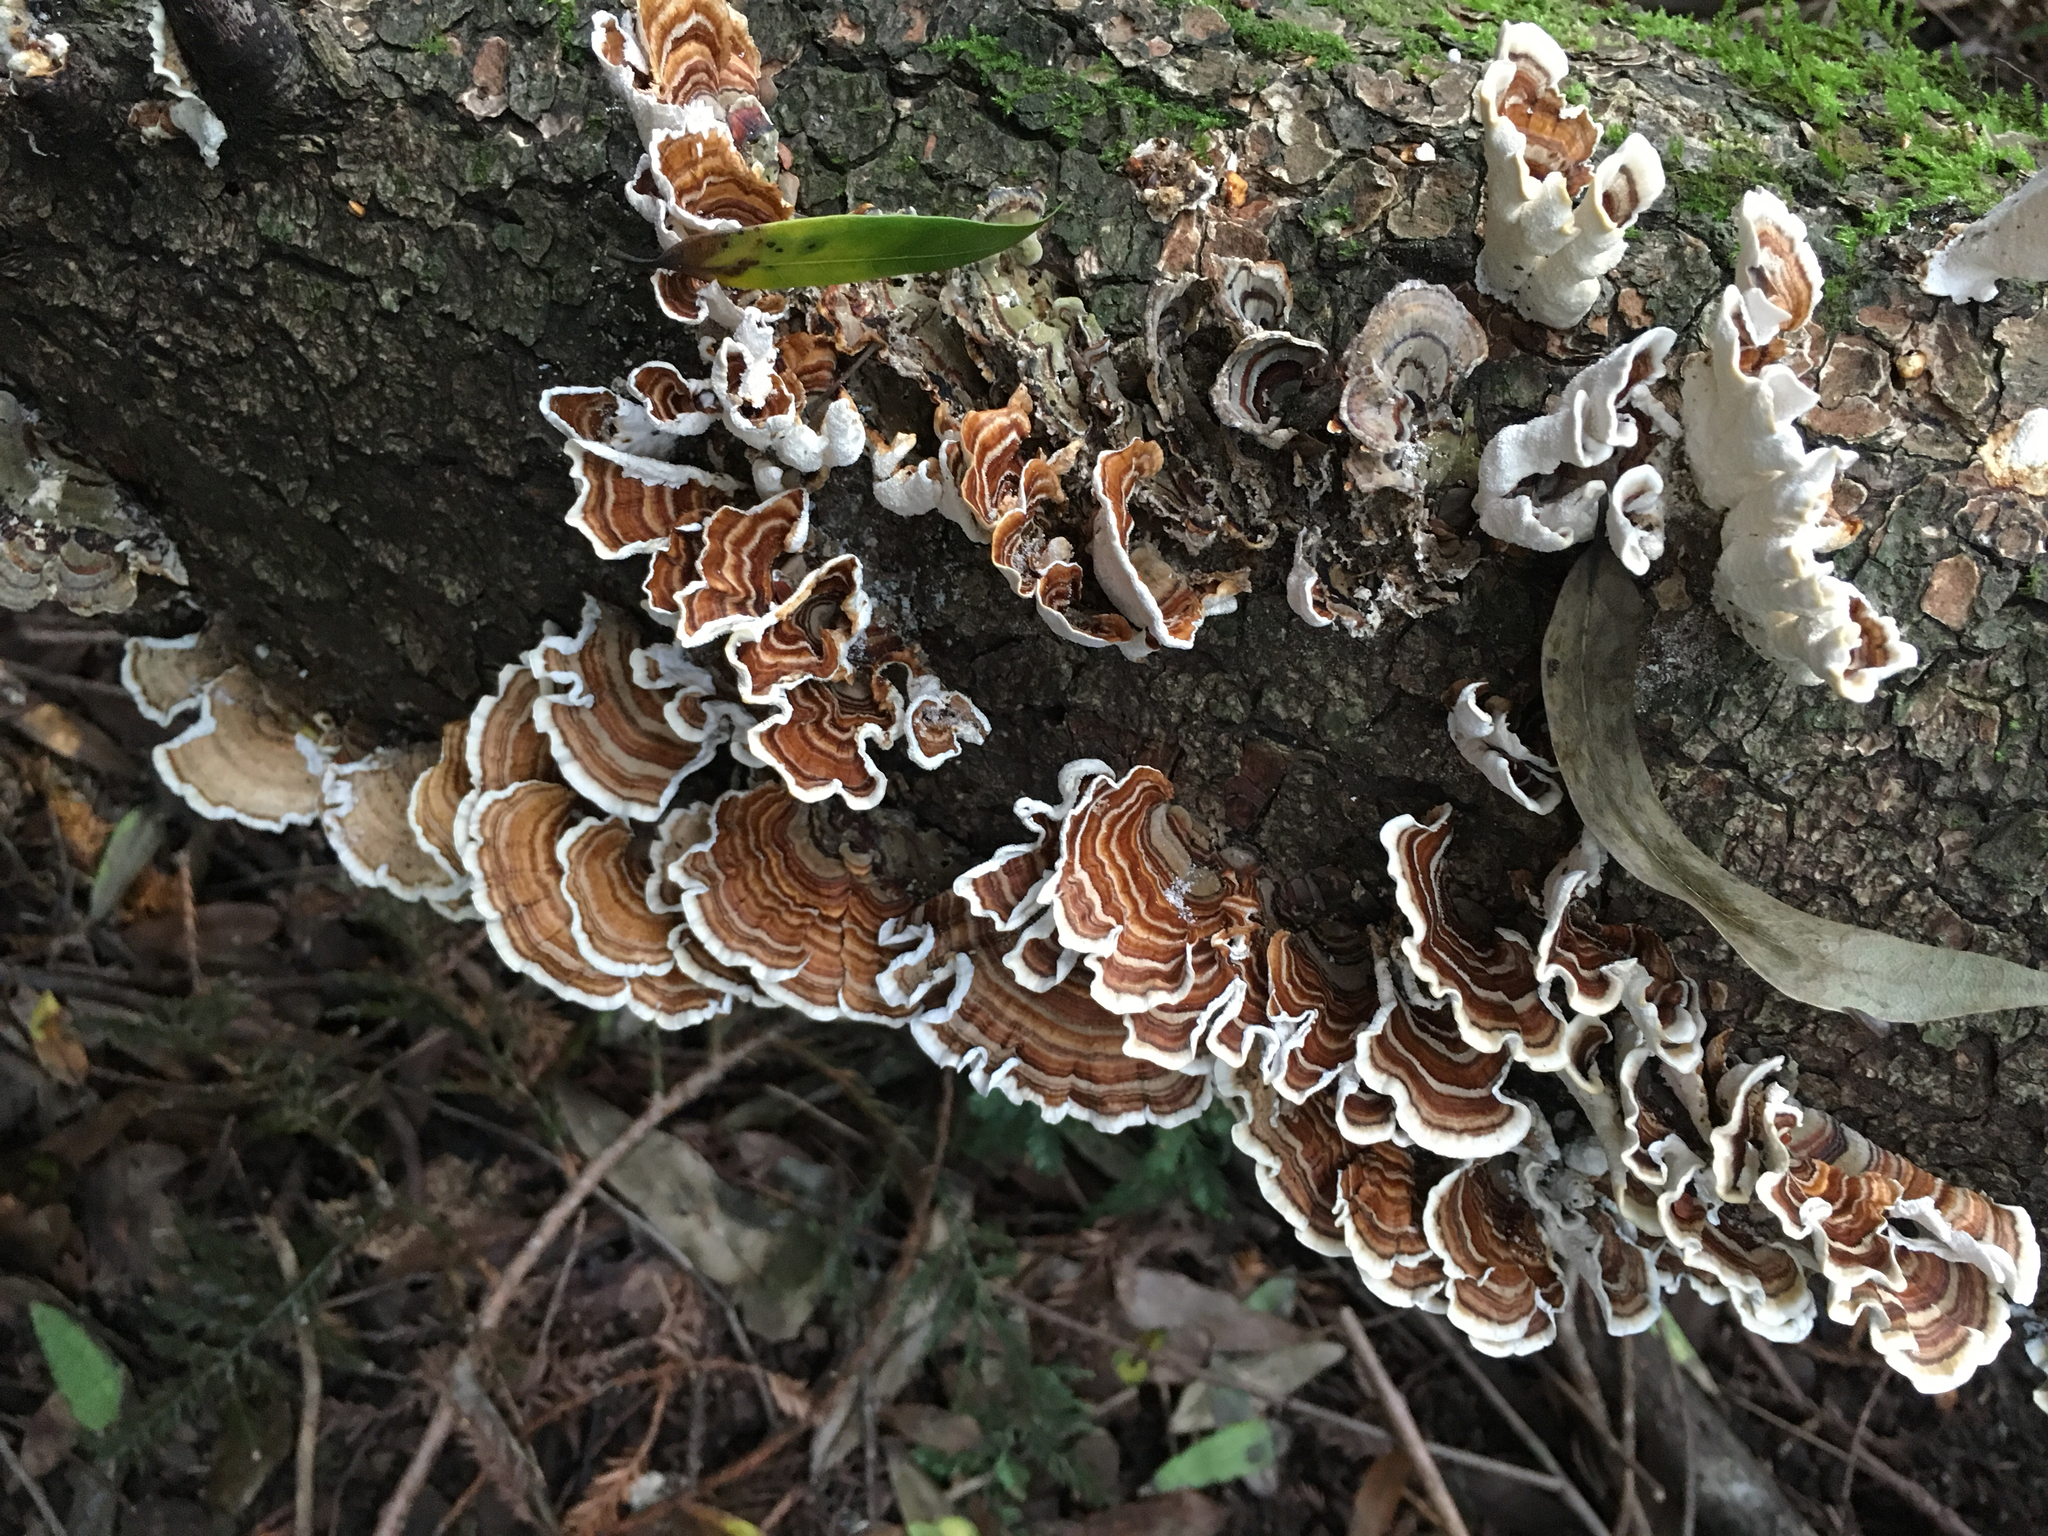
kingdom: Fungi
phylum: Basidiomycota
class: Agaricomycetes
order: Polyporales
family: Polyporaceae
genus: Trametes
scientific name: Trametes versicolor
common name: Turkeytail
